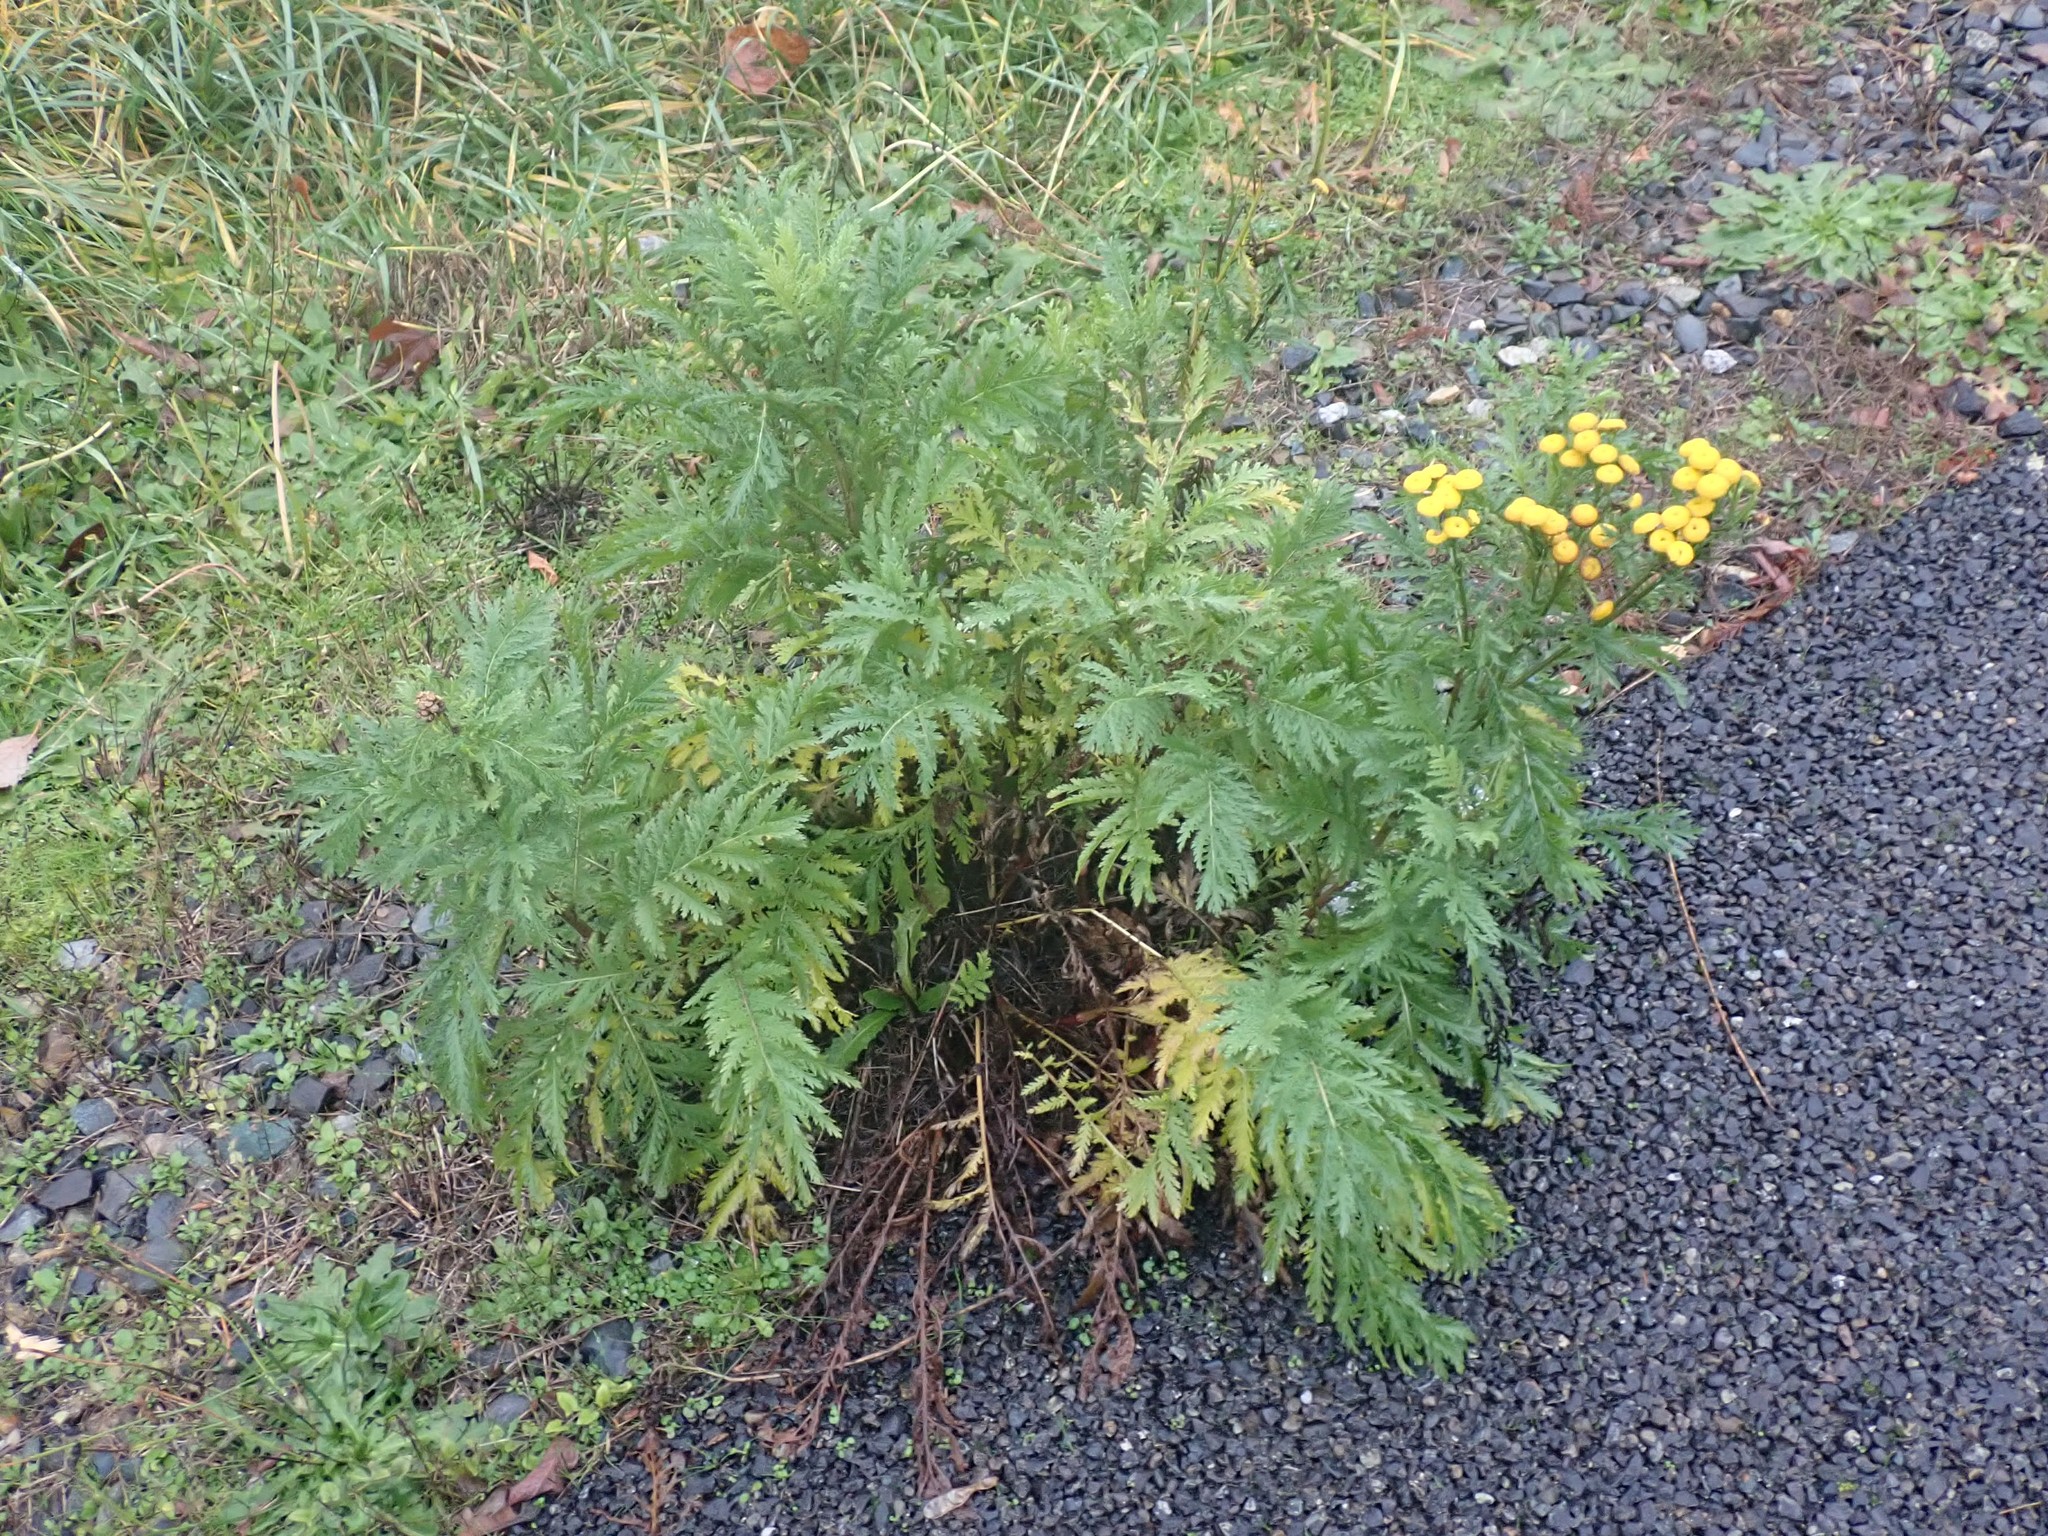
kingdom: Plantae
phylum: Tracheophyta
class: Magnoliopsida
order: Asterales
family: Asteraceae
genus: Tanacetum
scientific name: Tanacetum vulgare
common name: Common tansy
